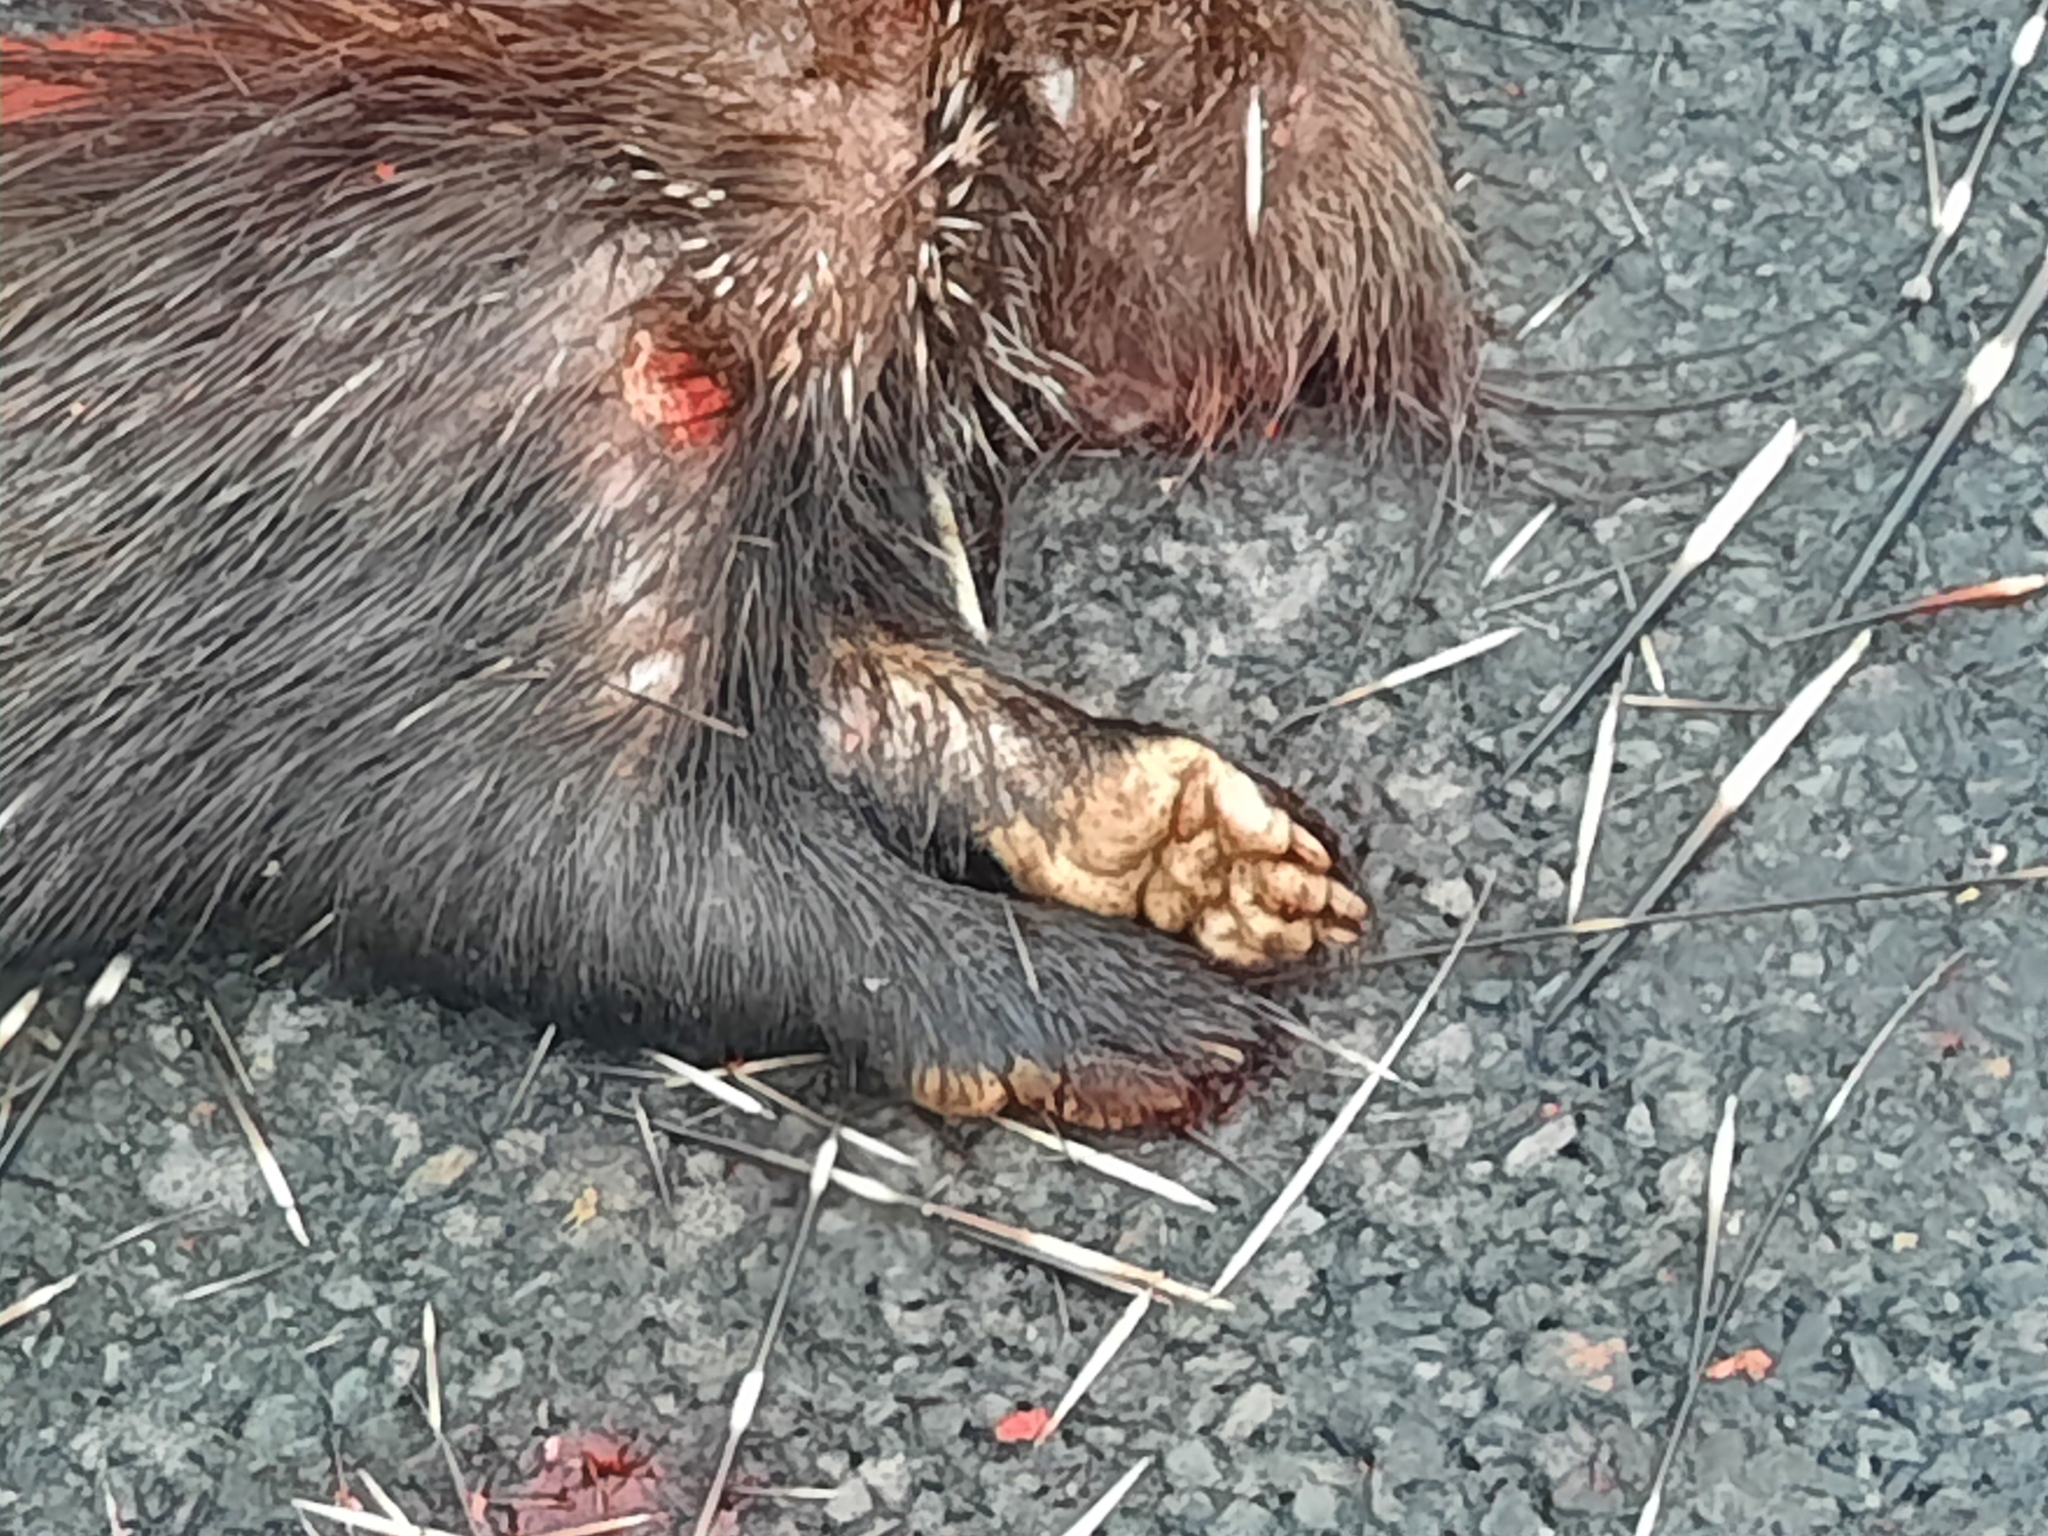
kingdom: Animalia
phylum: Chordata
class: Mammalia
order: Rodentia
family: Hystricidae
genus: Hystrix
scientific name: Hystrix indica
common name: Indian crested porcupine
